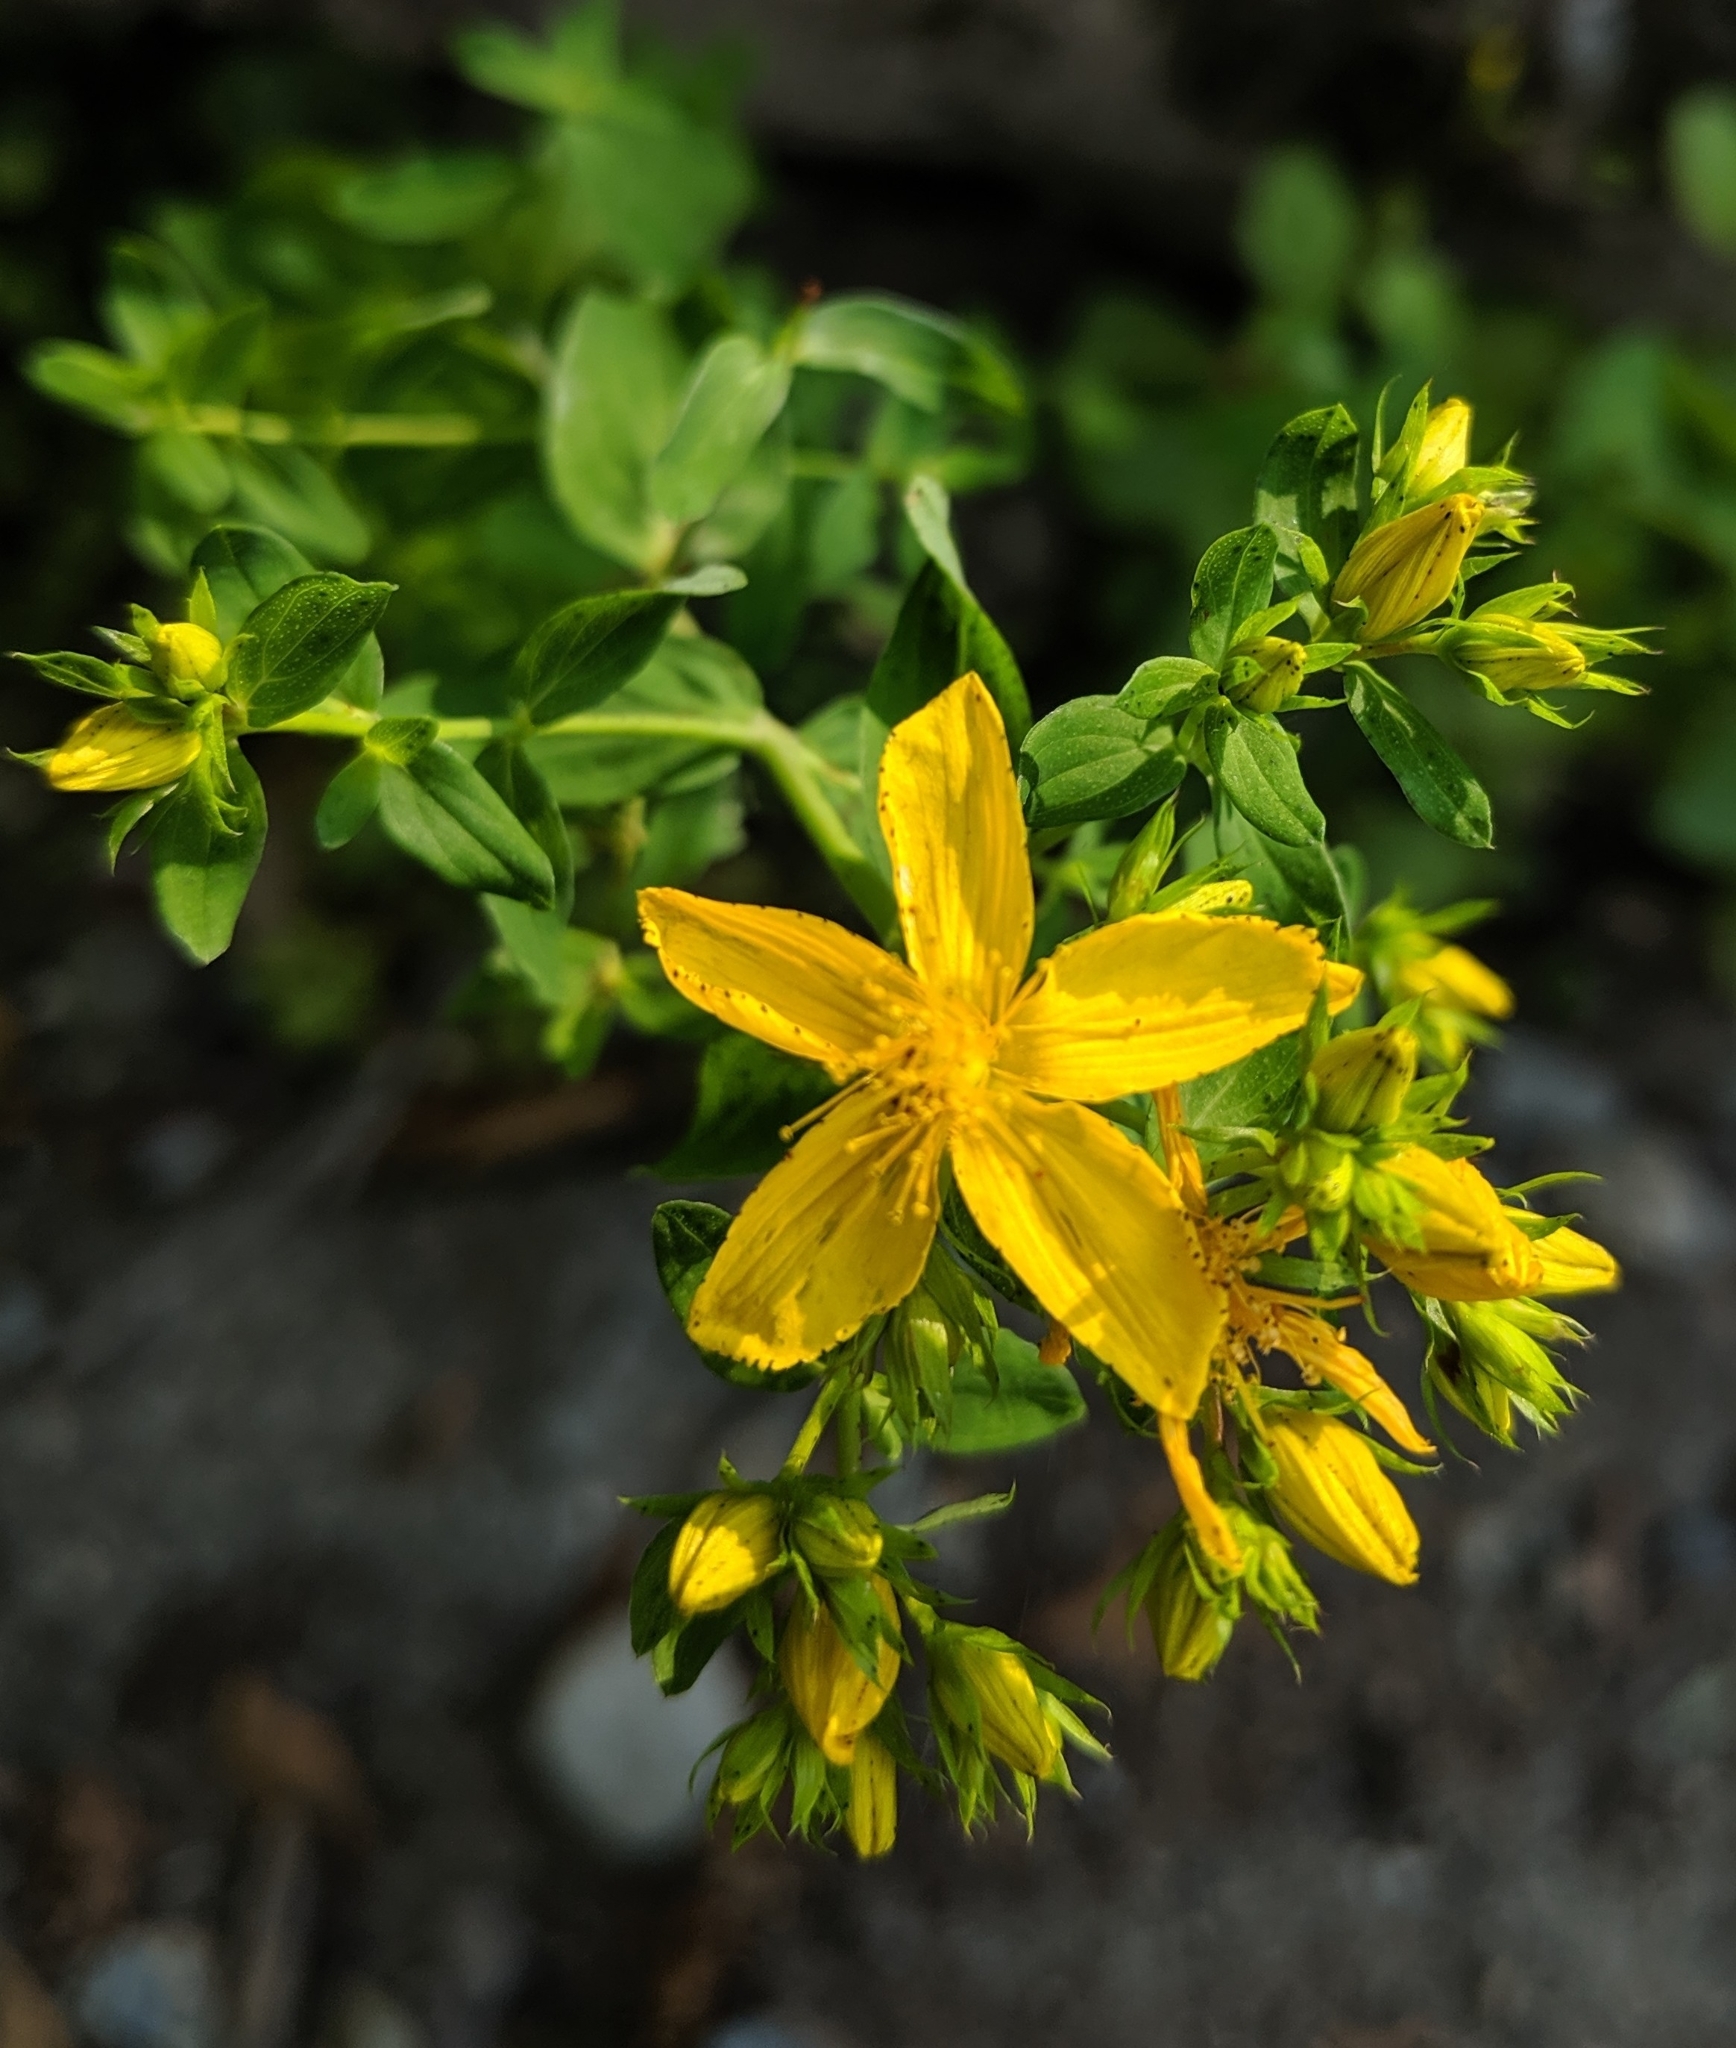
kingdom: Plantae
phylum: Tracheophyta
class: Magnoliopsida
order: Malpighiales
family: Hypericaceae
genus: Hypericum
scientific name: Hypericum perforatum
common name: Common st. johnswort
